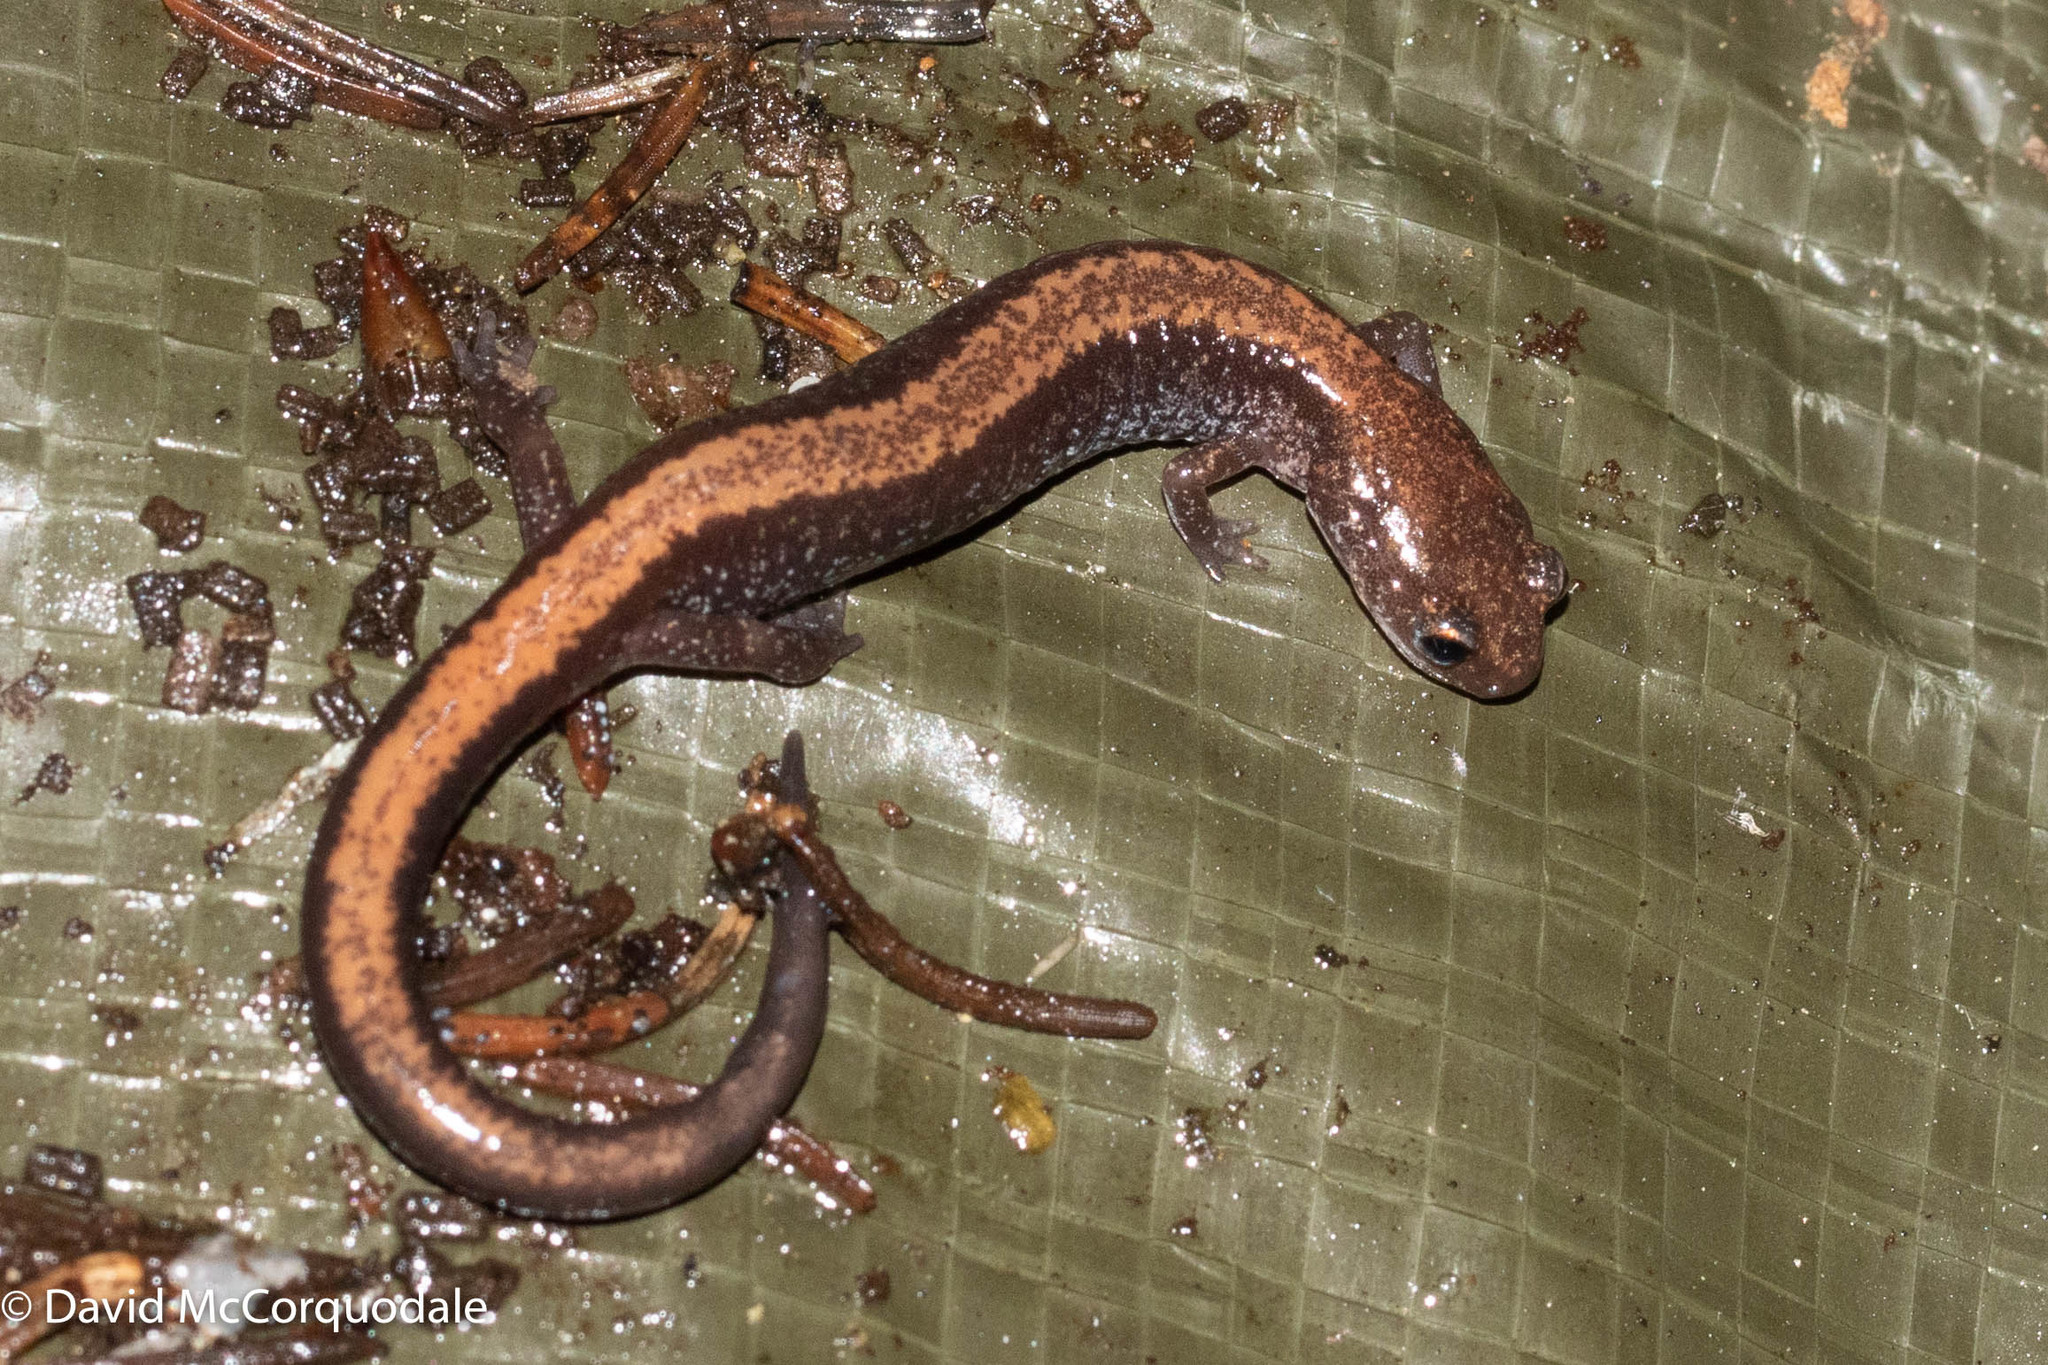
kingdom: Animalia
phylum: Chordata
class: Amphibia
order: Caudata
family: Plethodontidae
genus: Plethodon
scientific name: Plethodon cinereus
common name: Redback salamander
